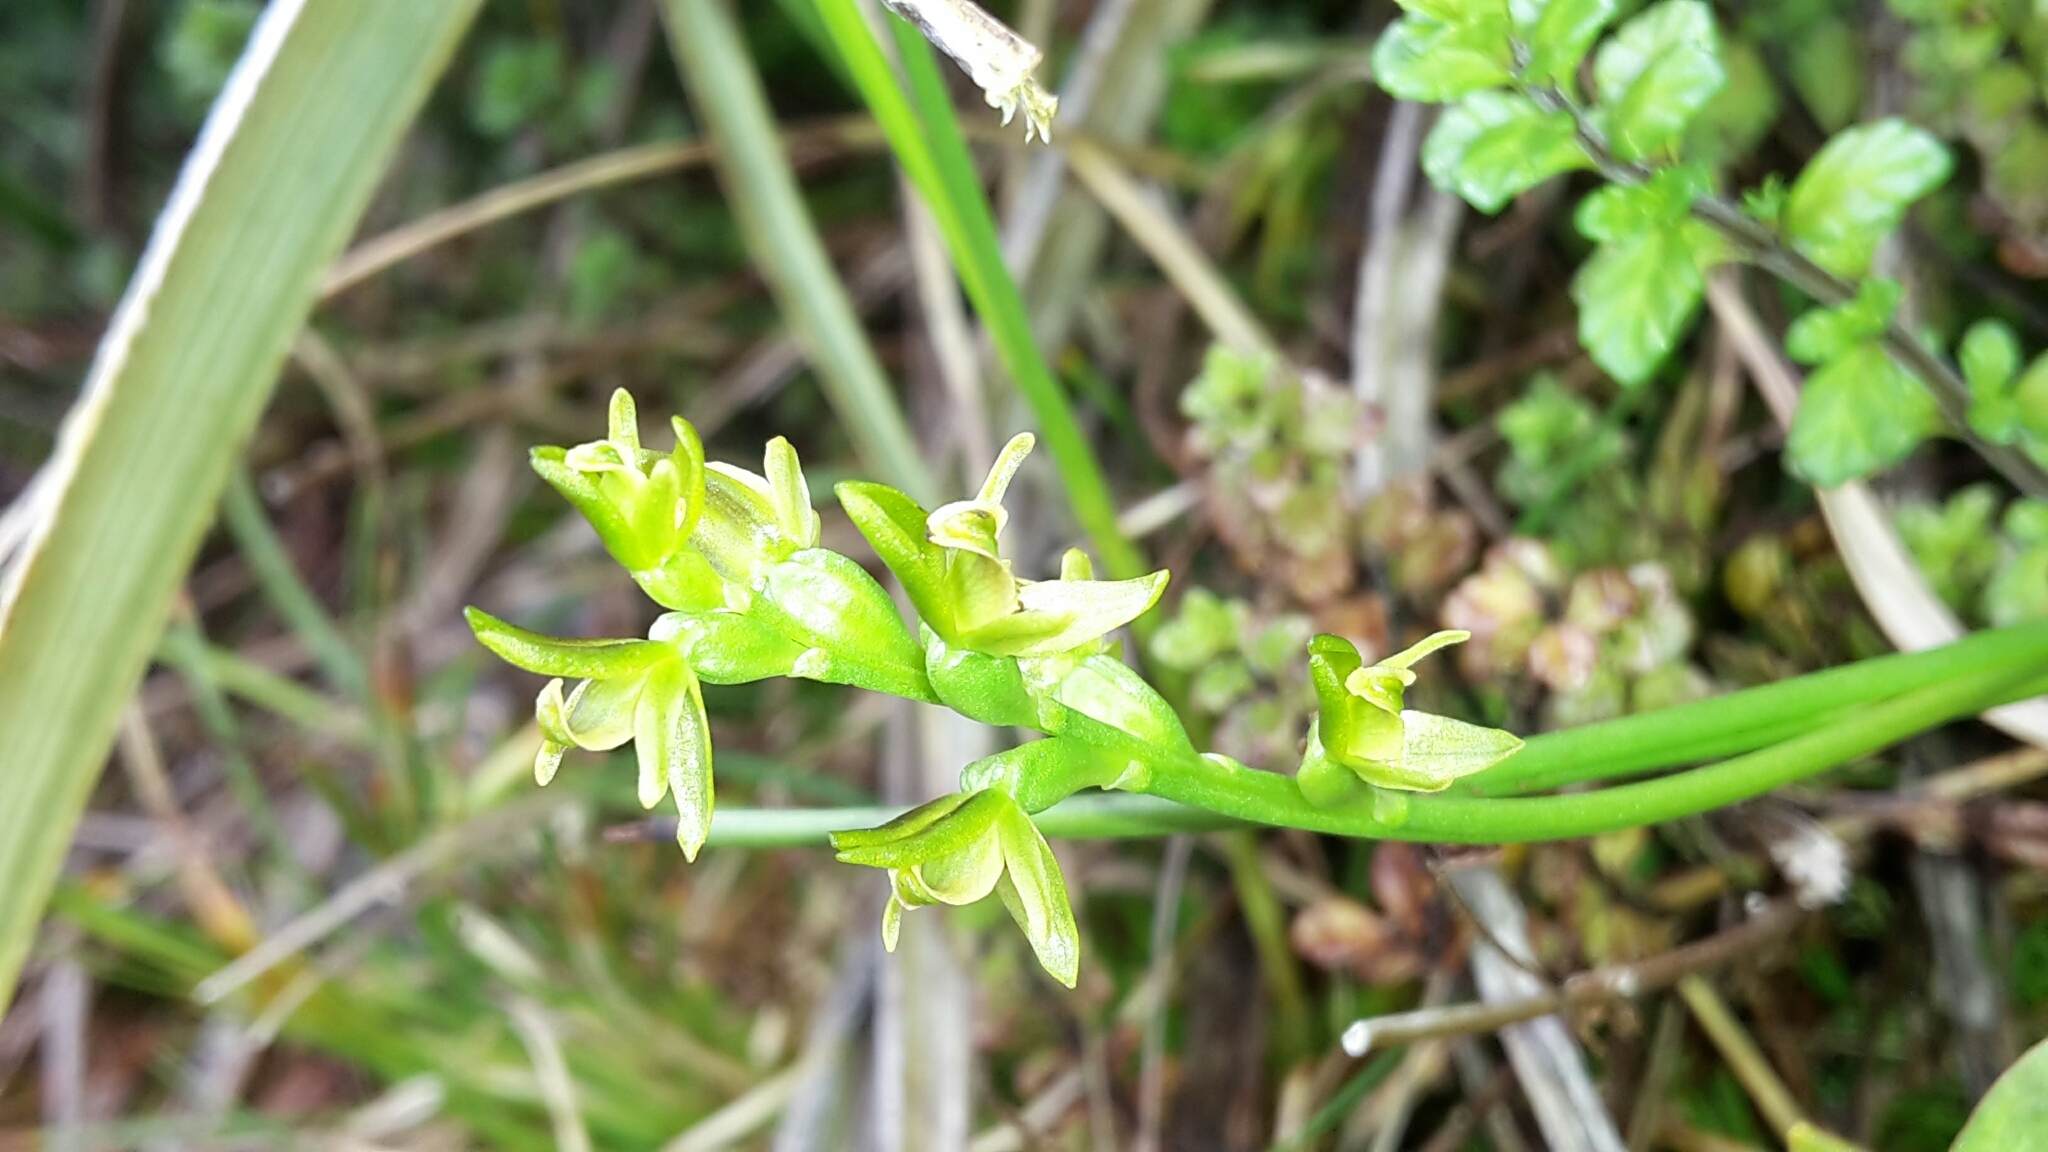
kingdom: Plantae
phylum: Tracheophyta
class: Liliopsida
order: Asparagales
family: Orchidaceae
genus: Prasophyllum
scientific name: Prasophyllum colensoi
